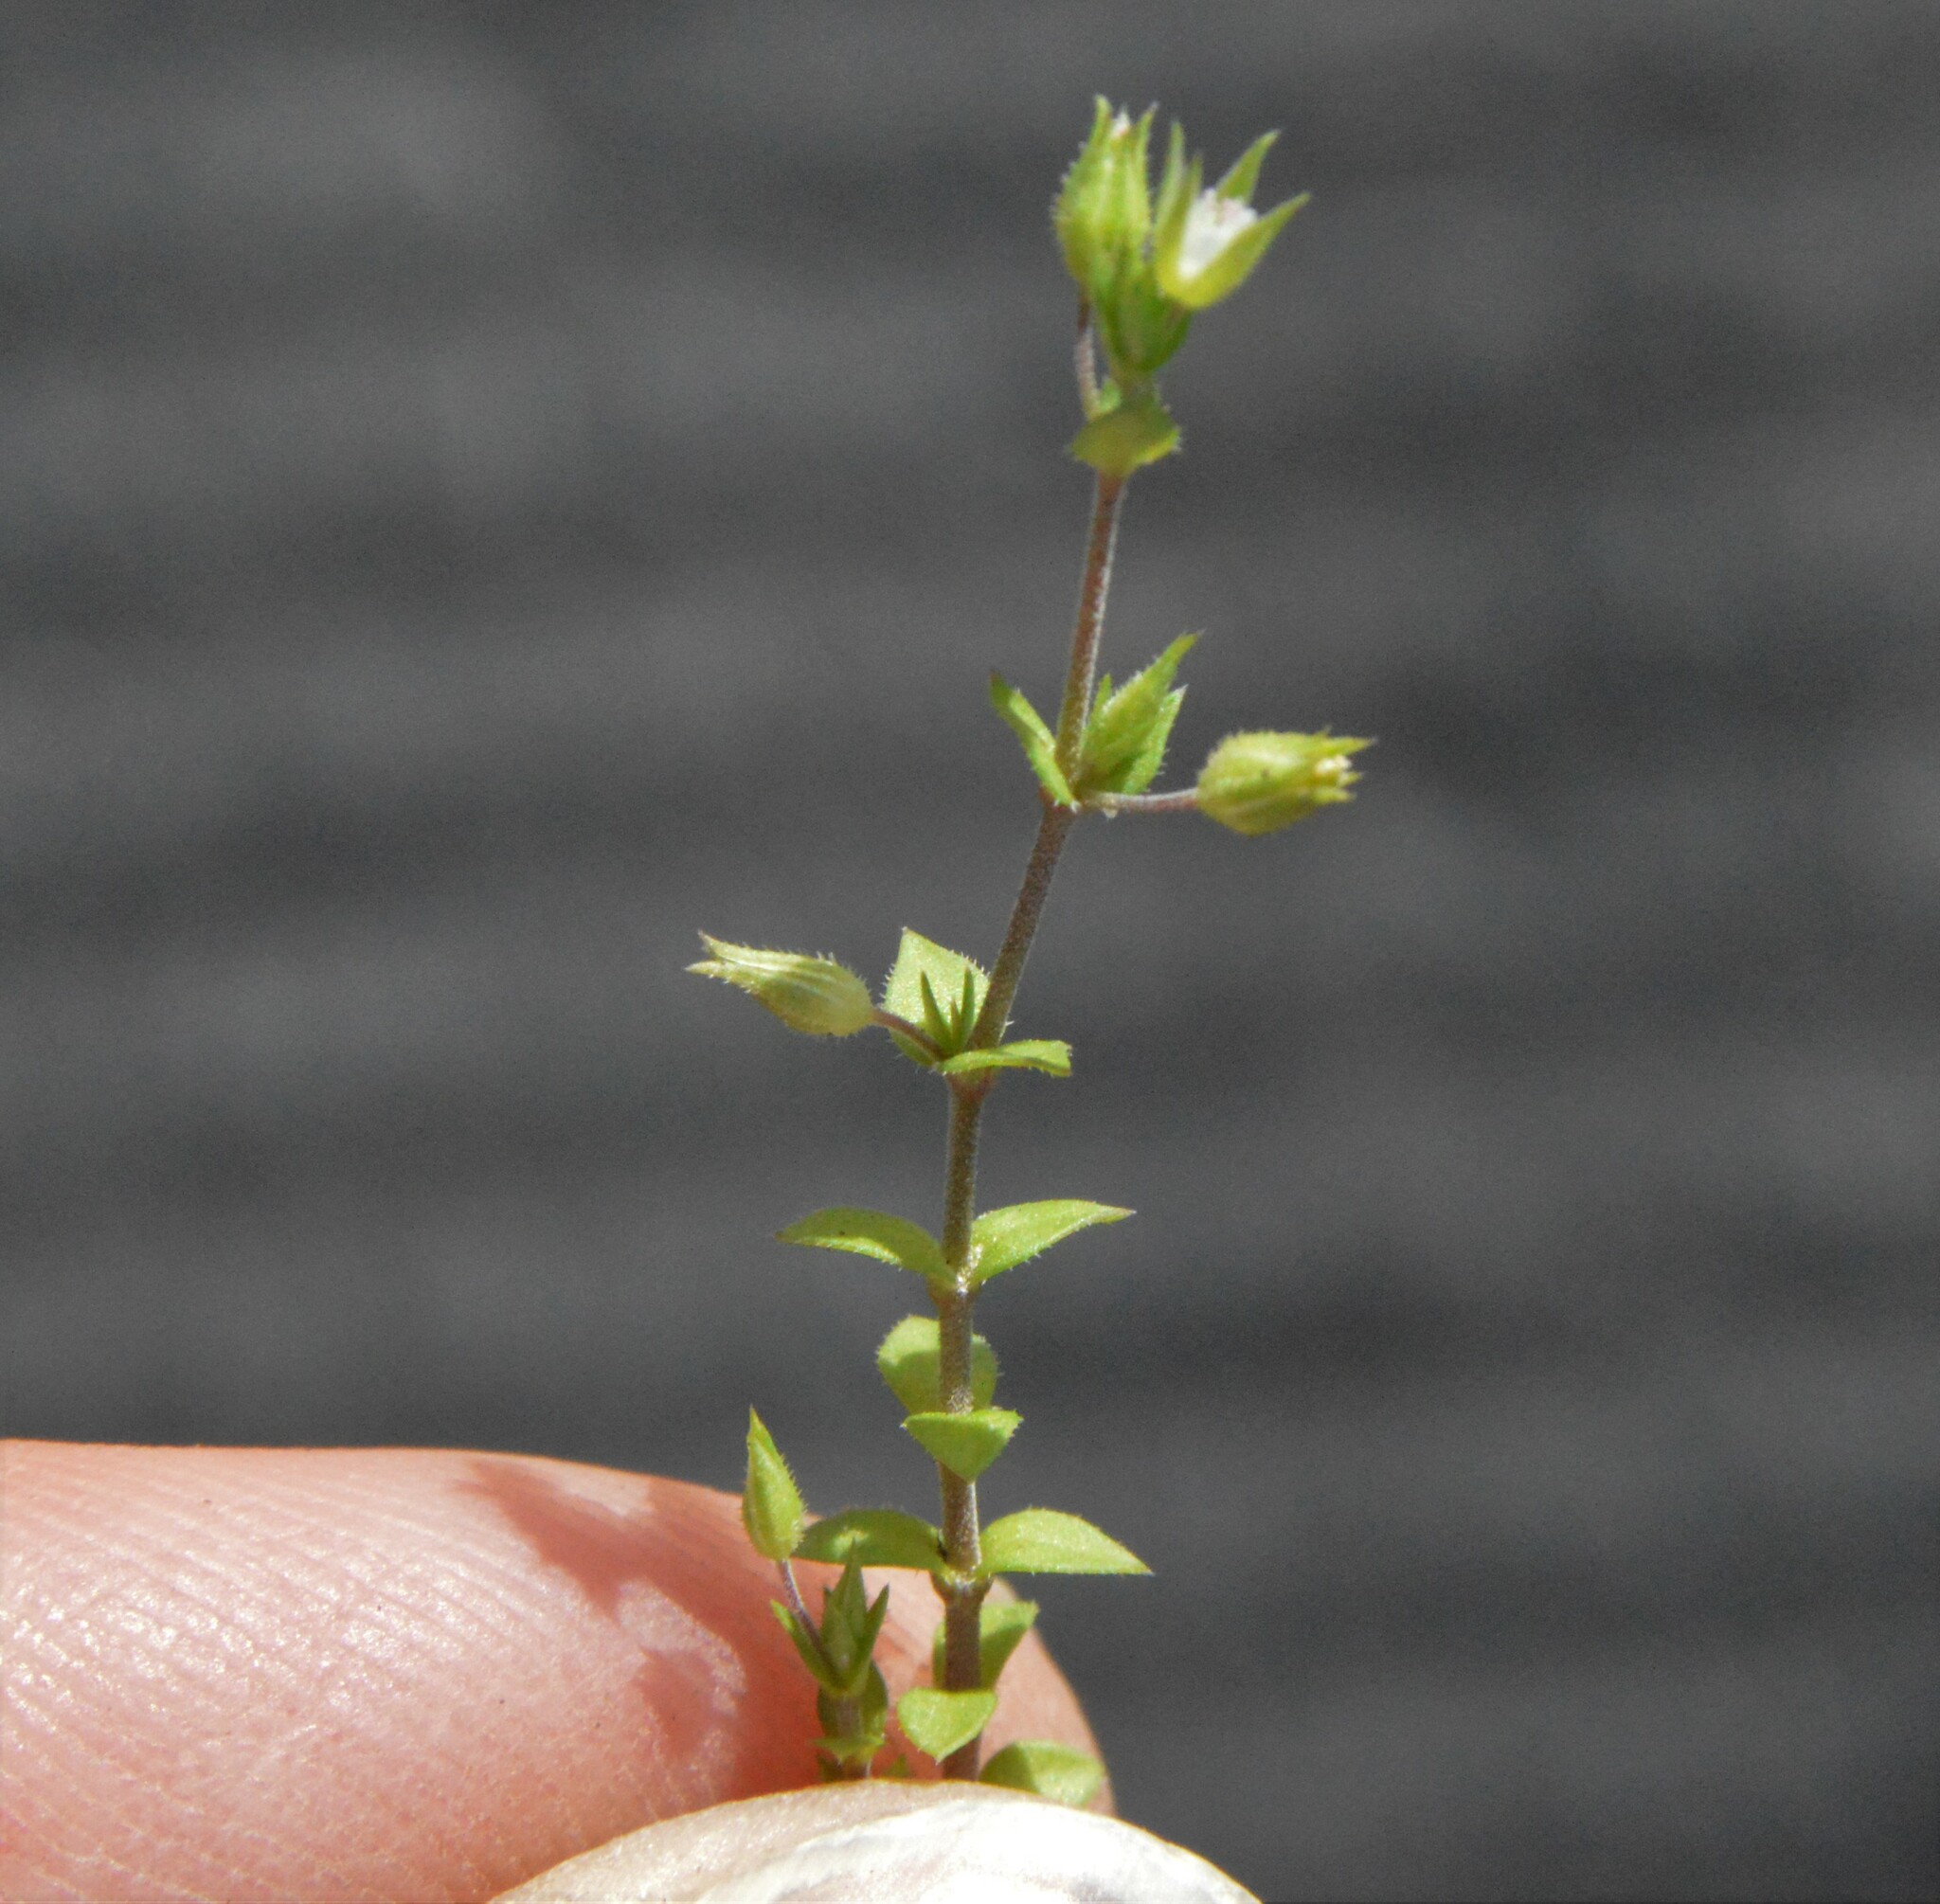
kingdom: Plantae
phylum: Tracheophyta
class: Magnoliopsida
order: Caryophyllales
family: Caryophyllaceae
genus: Arenaria
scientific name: Arenaria serpyllifolia
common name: Thyme-leaved sandwort
